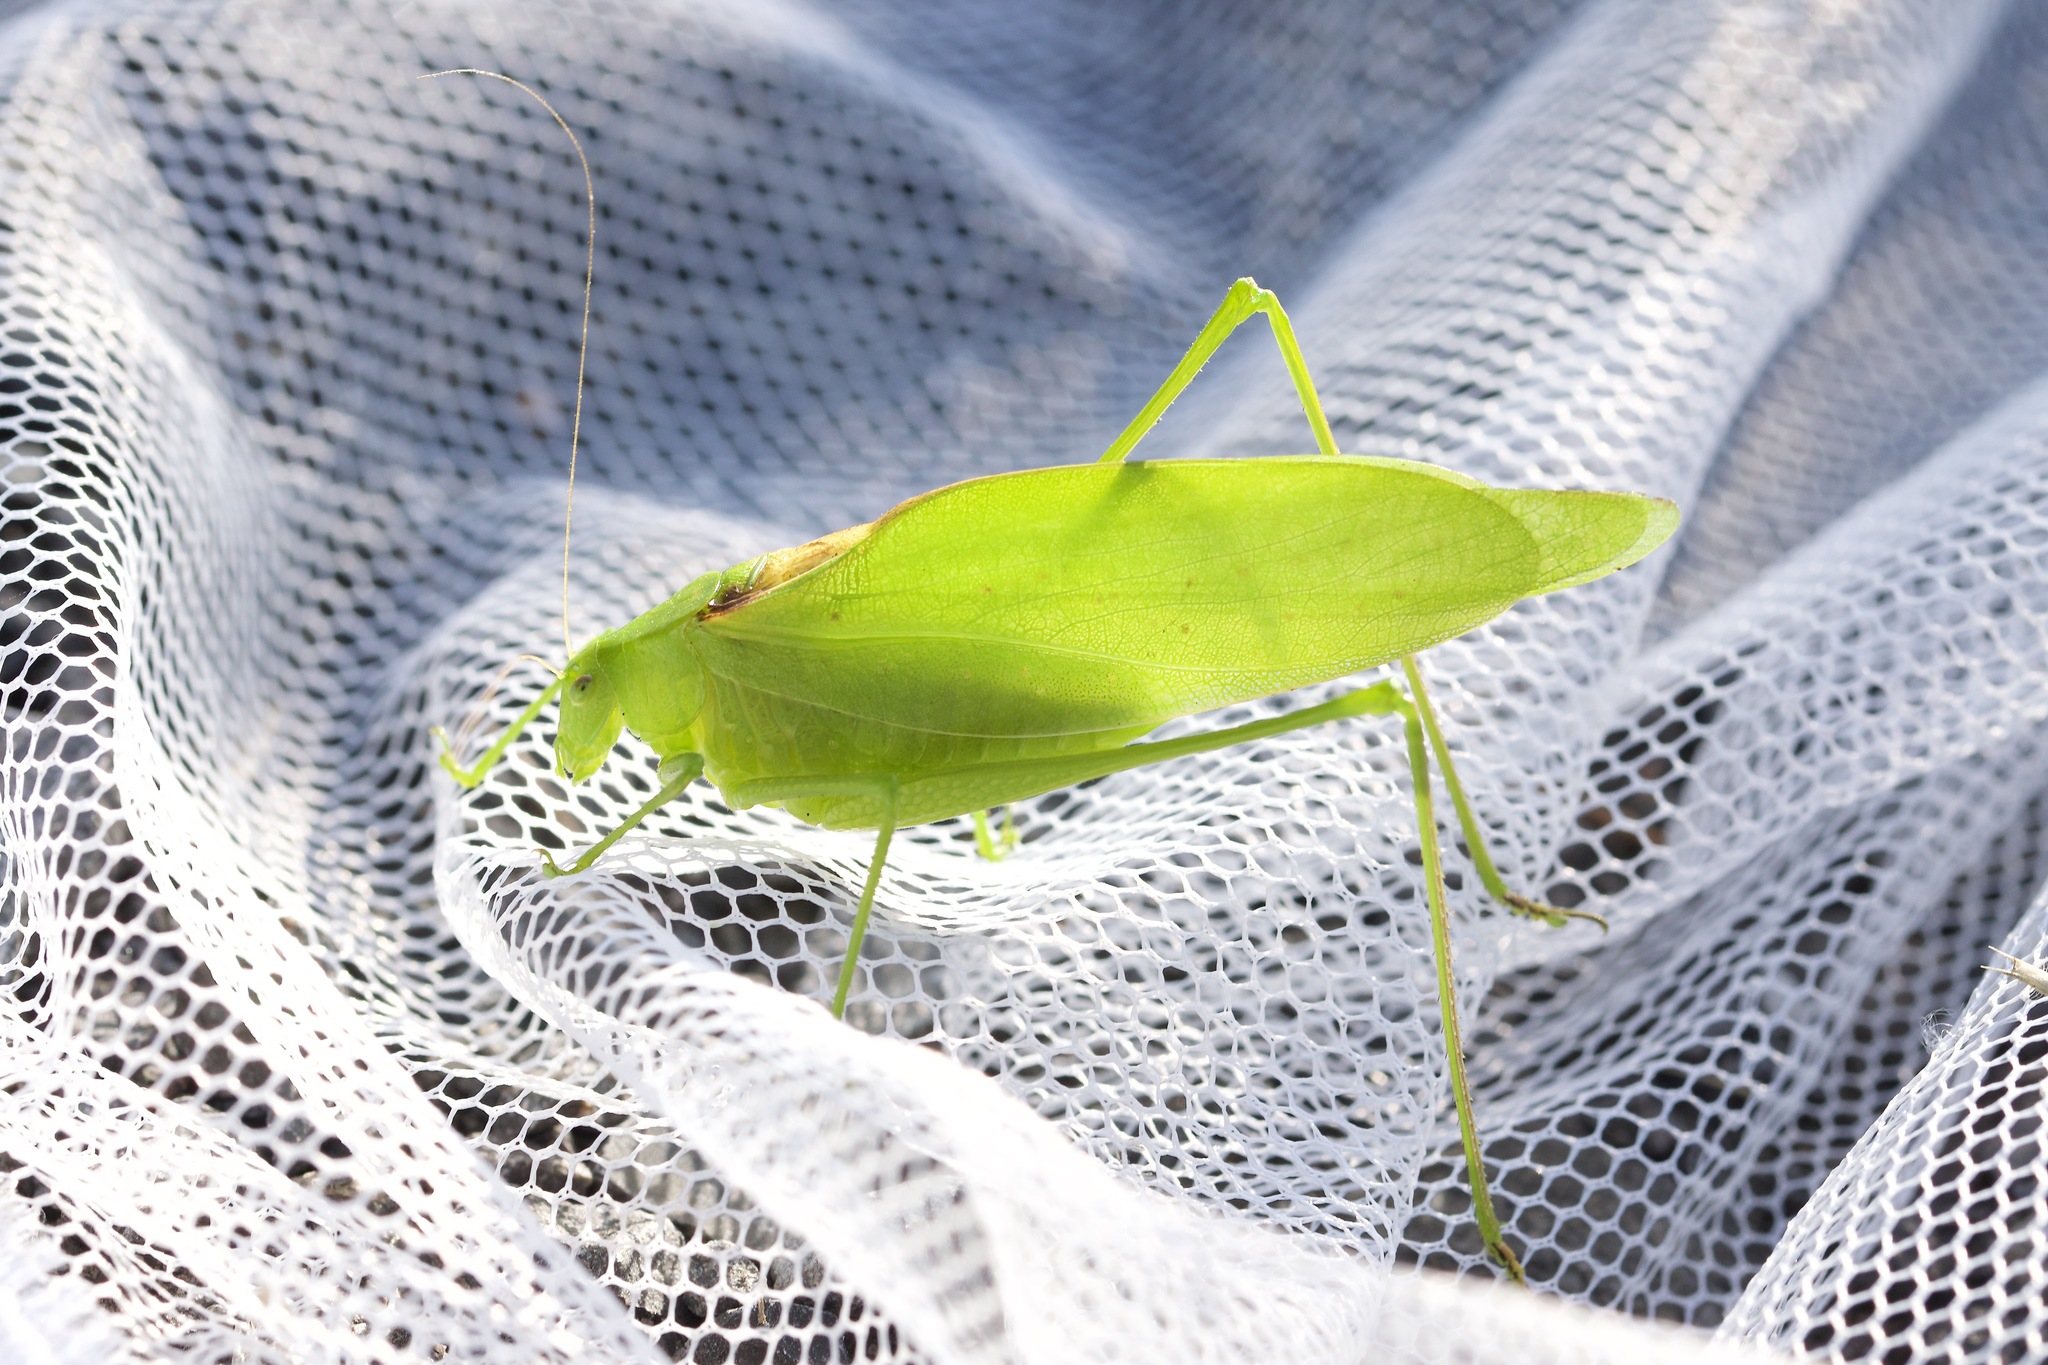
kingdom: Animalia
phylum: Arthropoda
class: Insecta
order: Orthoptera
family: Tettigoniidae
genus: Amblycorypha
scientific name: Amblycorypha oblongifolia
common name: Oblong-winged katydid
